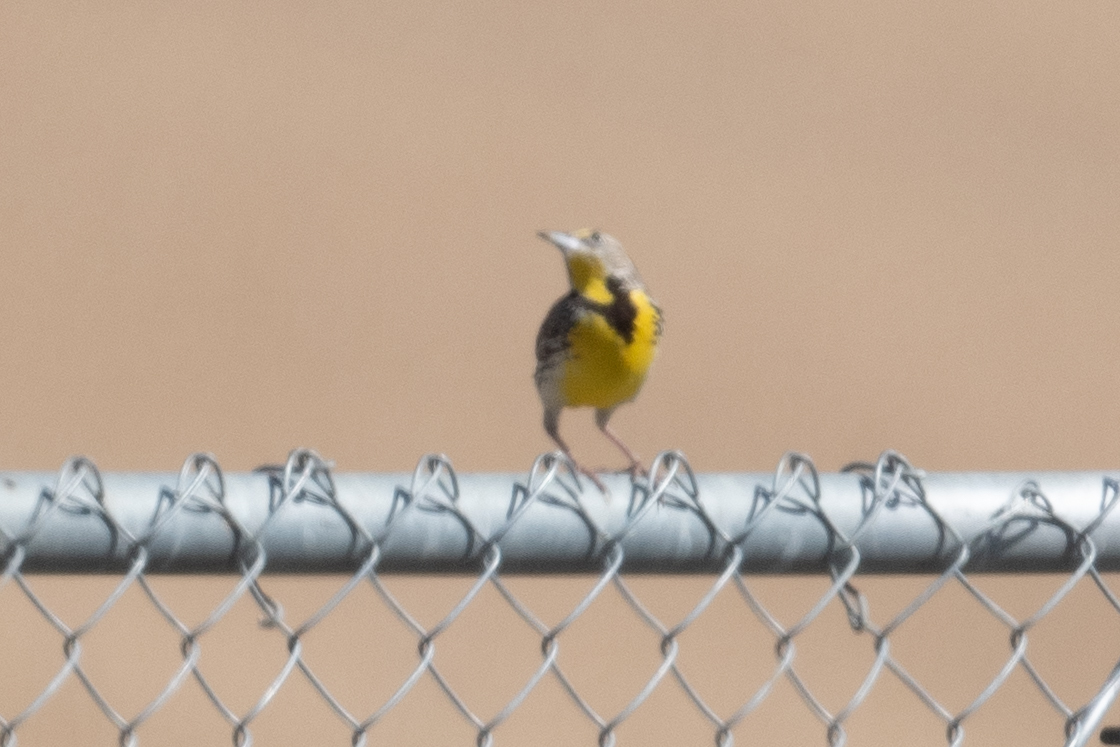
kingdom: Animalia
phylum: Chordata
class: Aves
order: Passeriformes
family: Icteridae
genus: Sturnella
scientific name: Sturnella neglecta
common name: Western meadowlark
